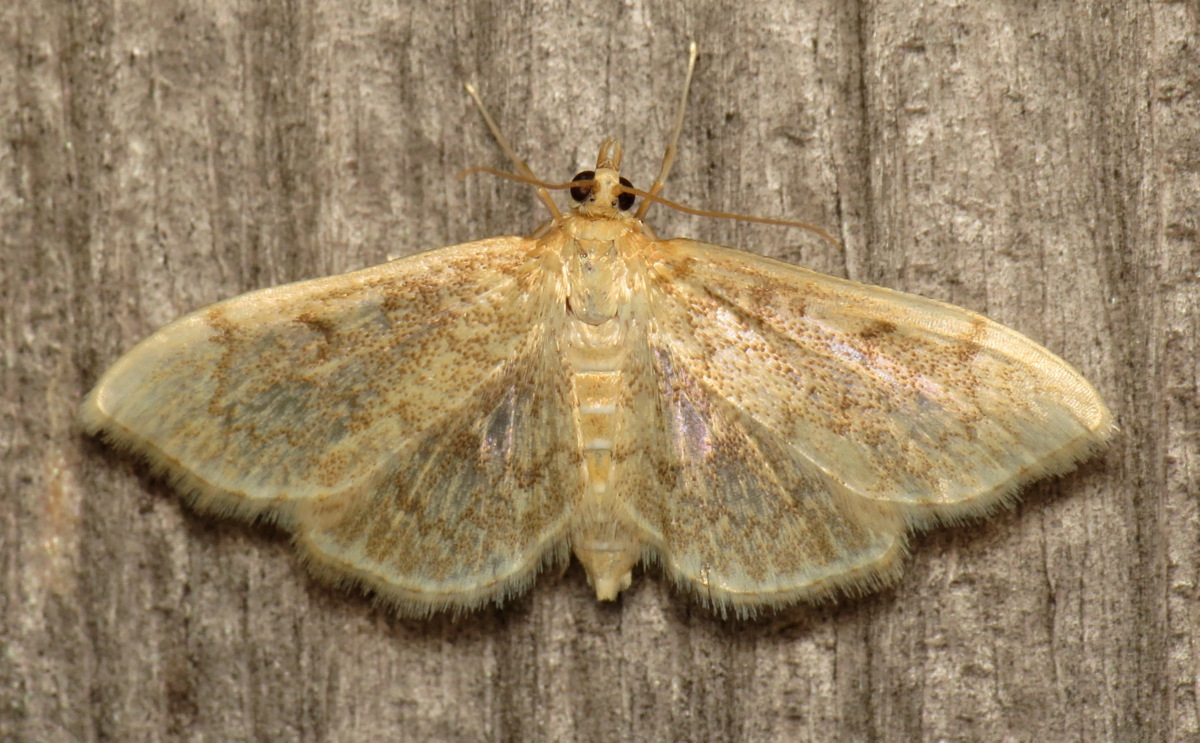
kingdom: Animalia
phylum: Arthropoda
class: Insecta
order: Lepidoptera
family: Crambidae
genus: Anania
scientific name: Anania quebecensis
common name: Quebec anania moth
